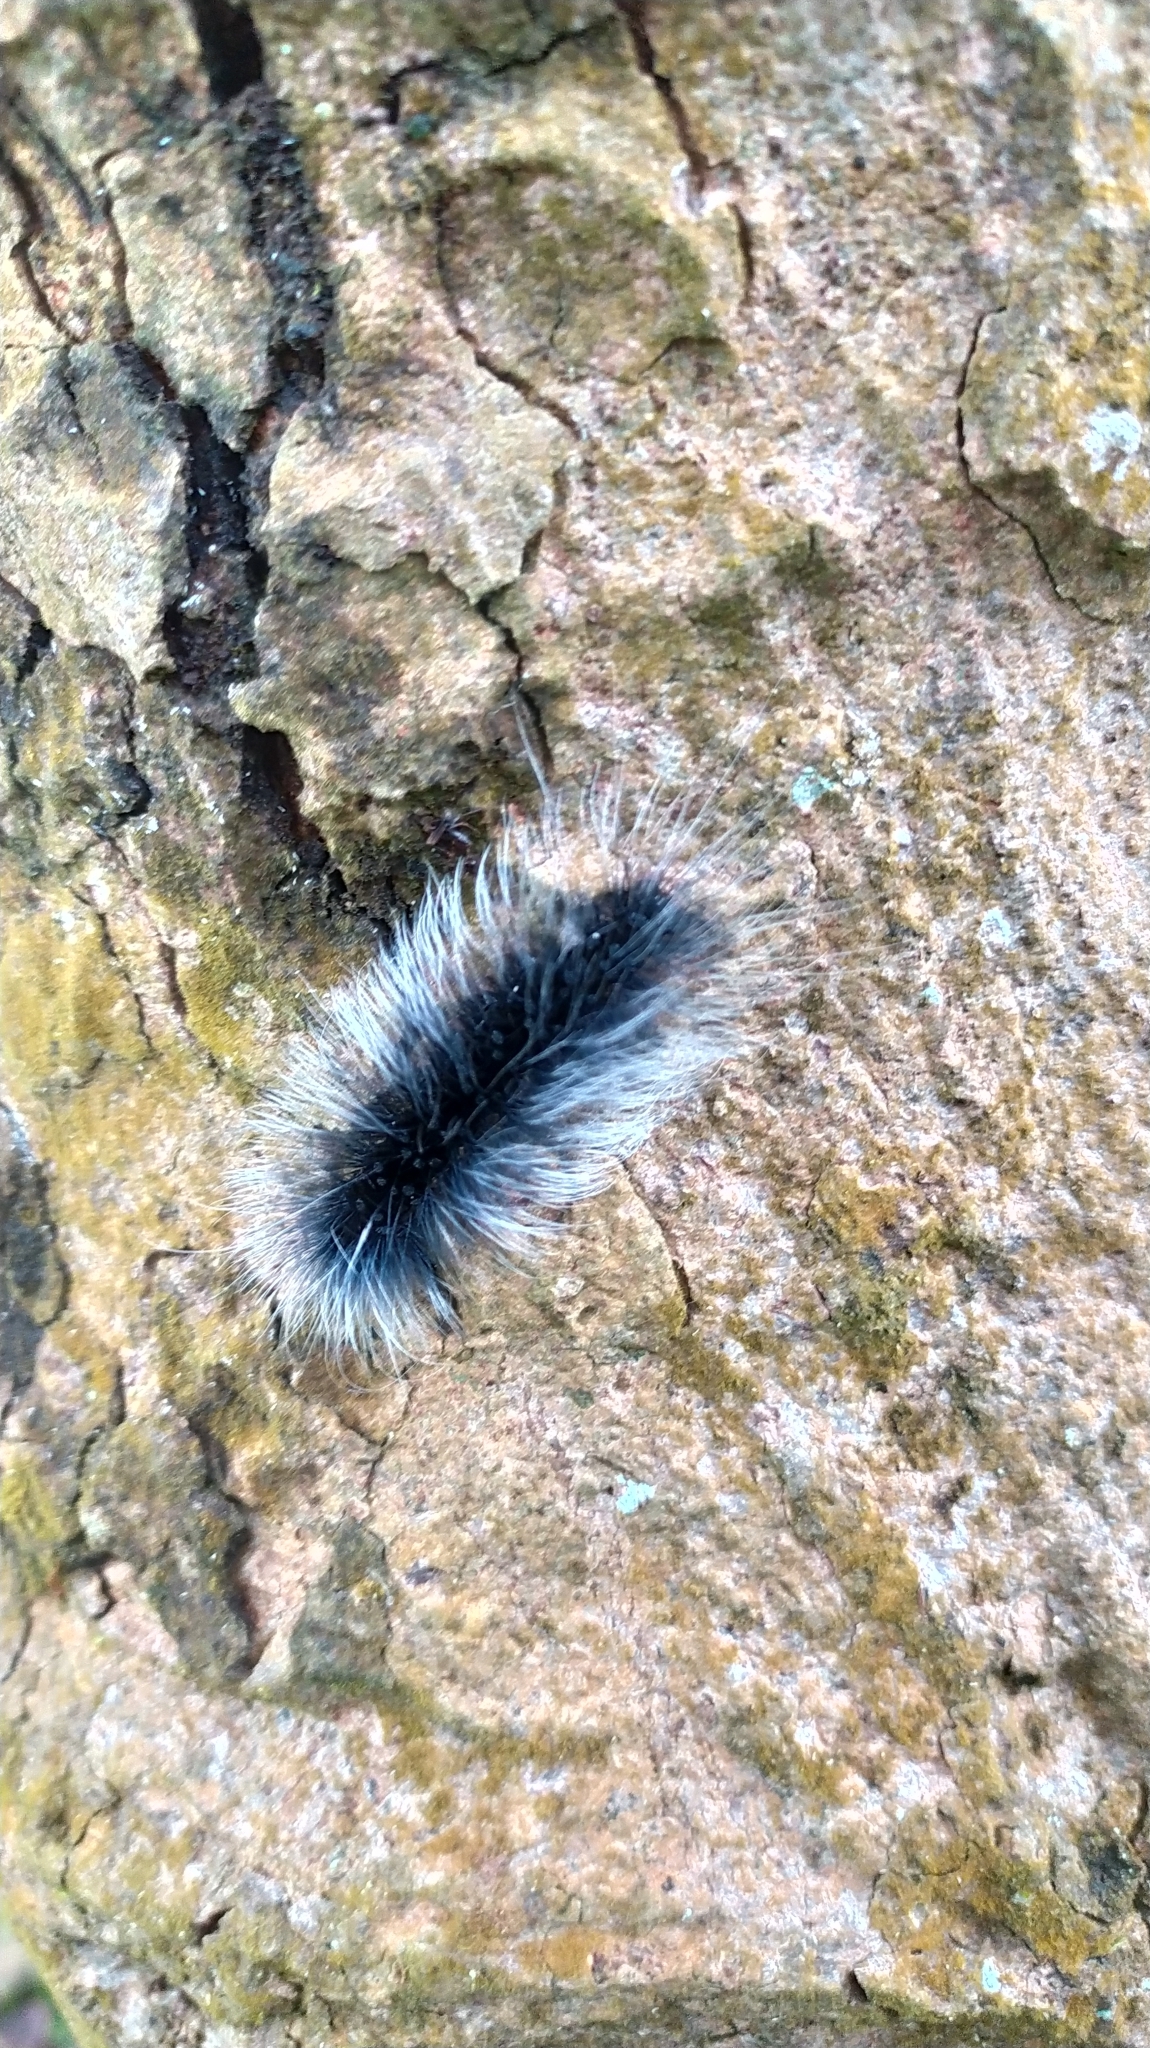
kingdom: Animalia
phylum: Arthropoda
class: Insecta
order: Lepidoptera
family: Erebidae
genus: Macrobrochis
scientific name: Macrobrochis gigas
